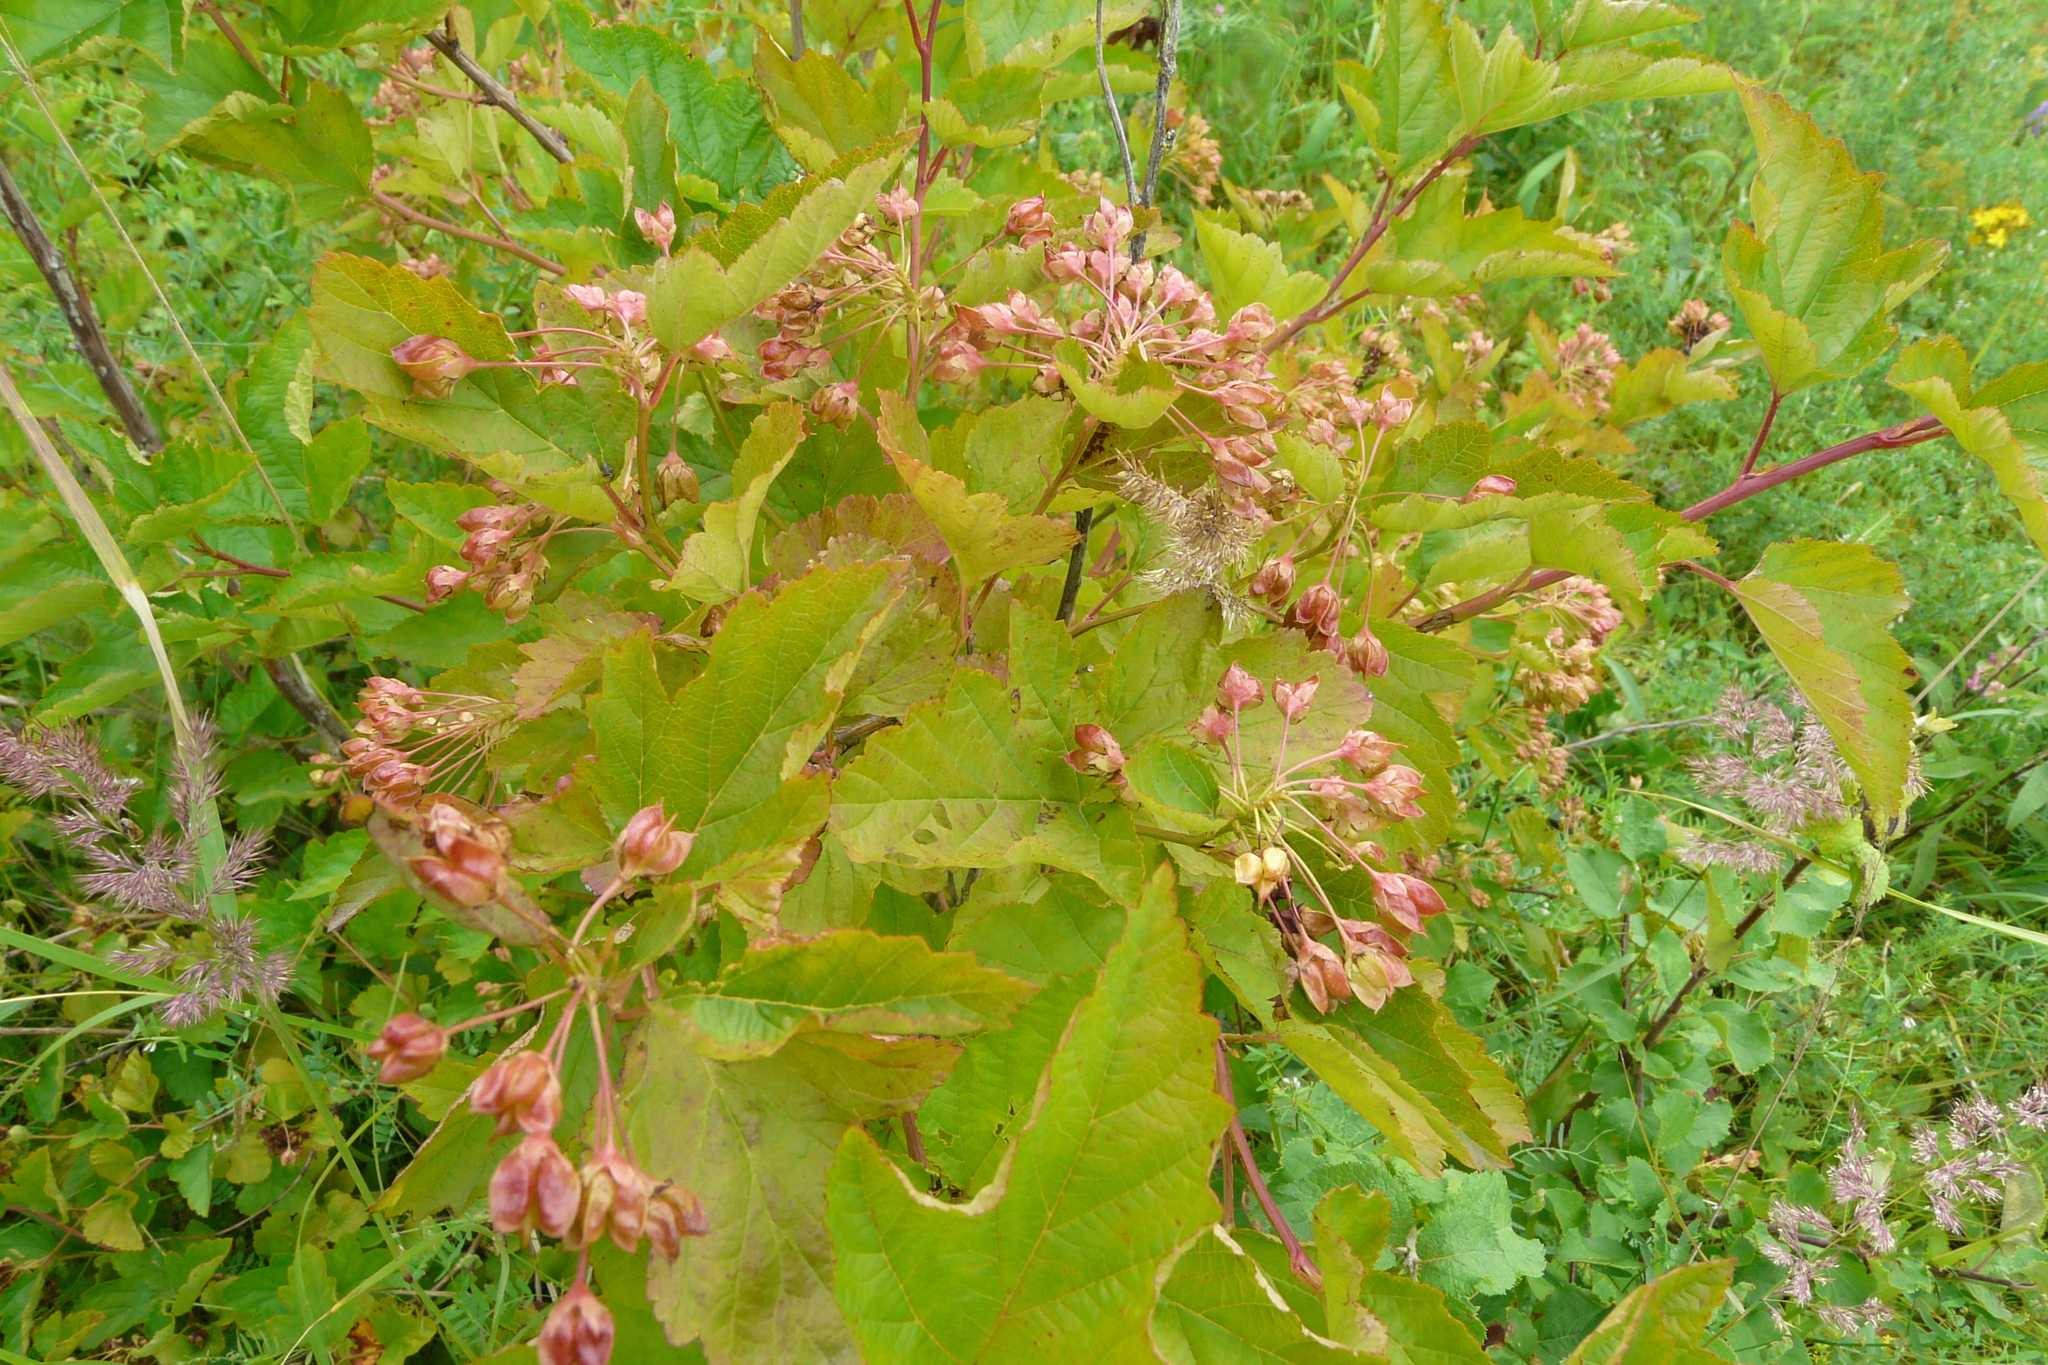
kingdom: Plantae
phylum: Tracheophyta
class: Magnoliopsida
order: Rosales
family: Rosaceae
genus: Physocarpus
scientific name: Physocarpus opulifolius
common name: Ninebark
